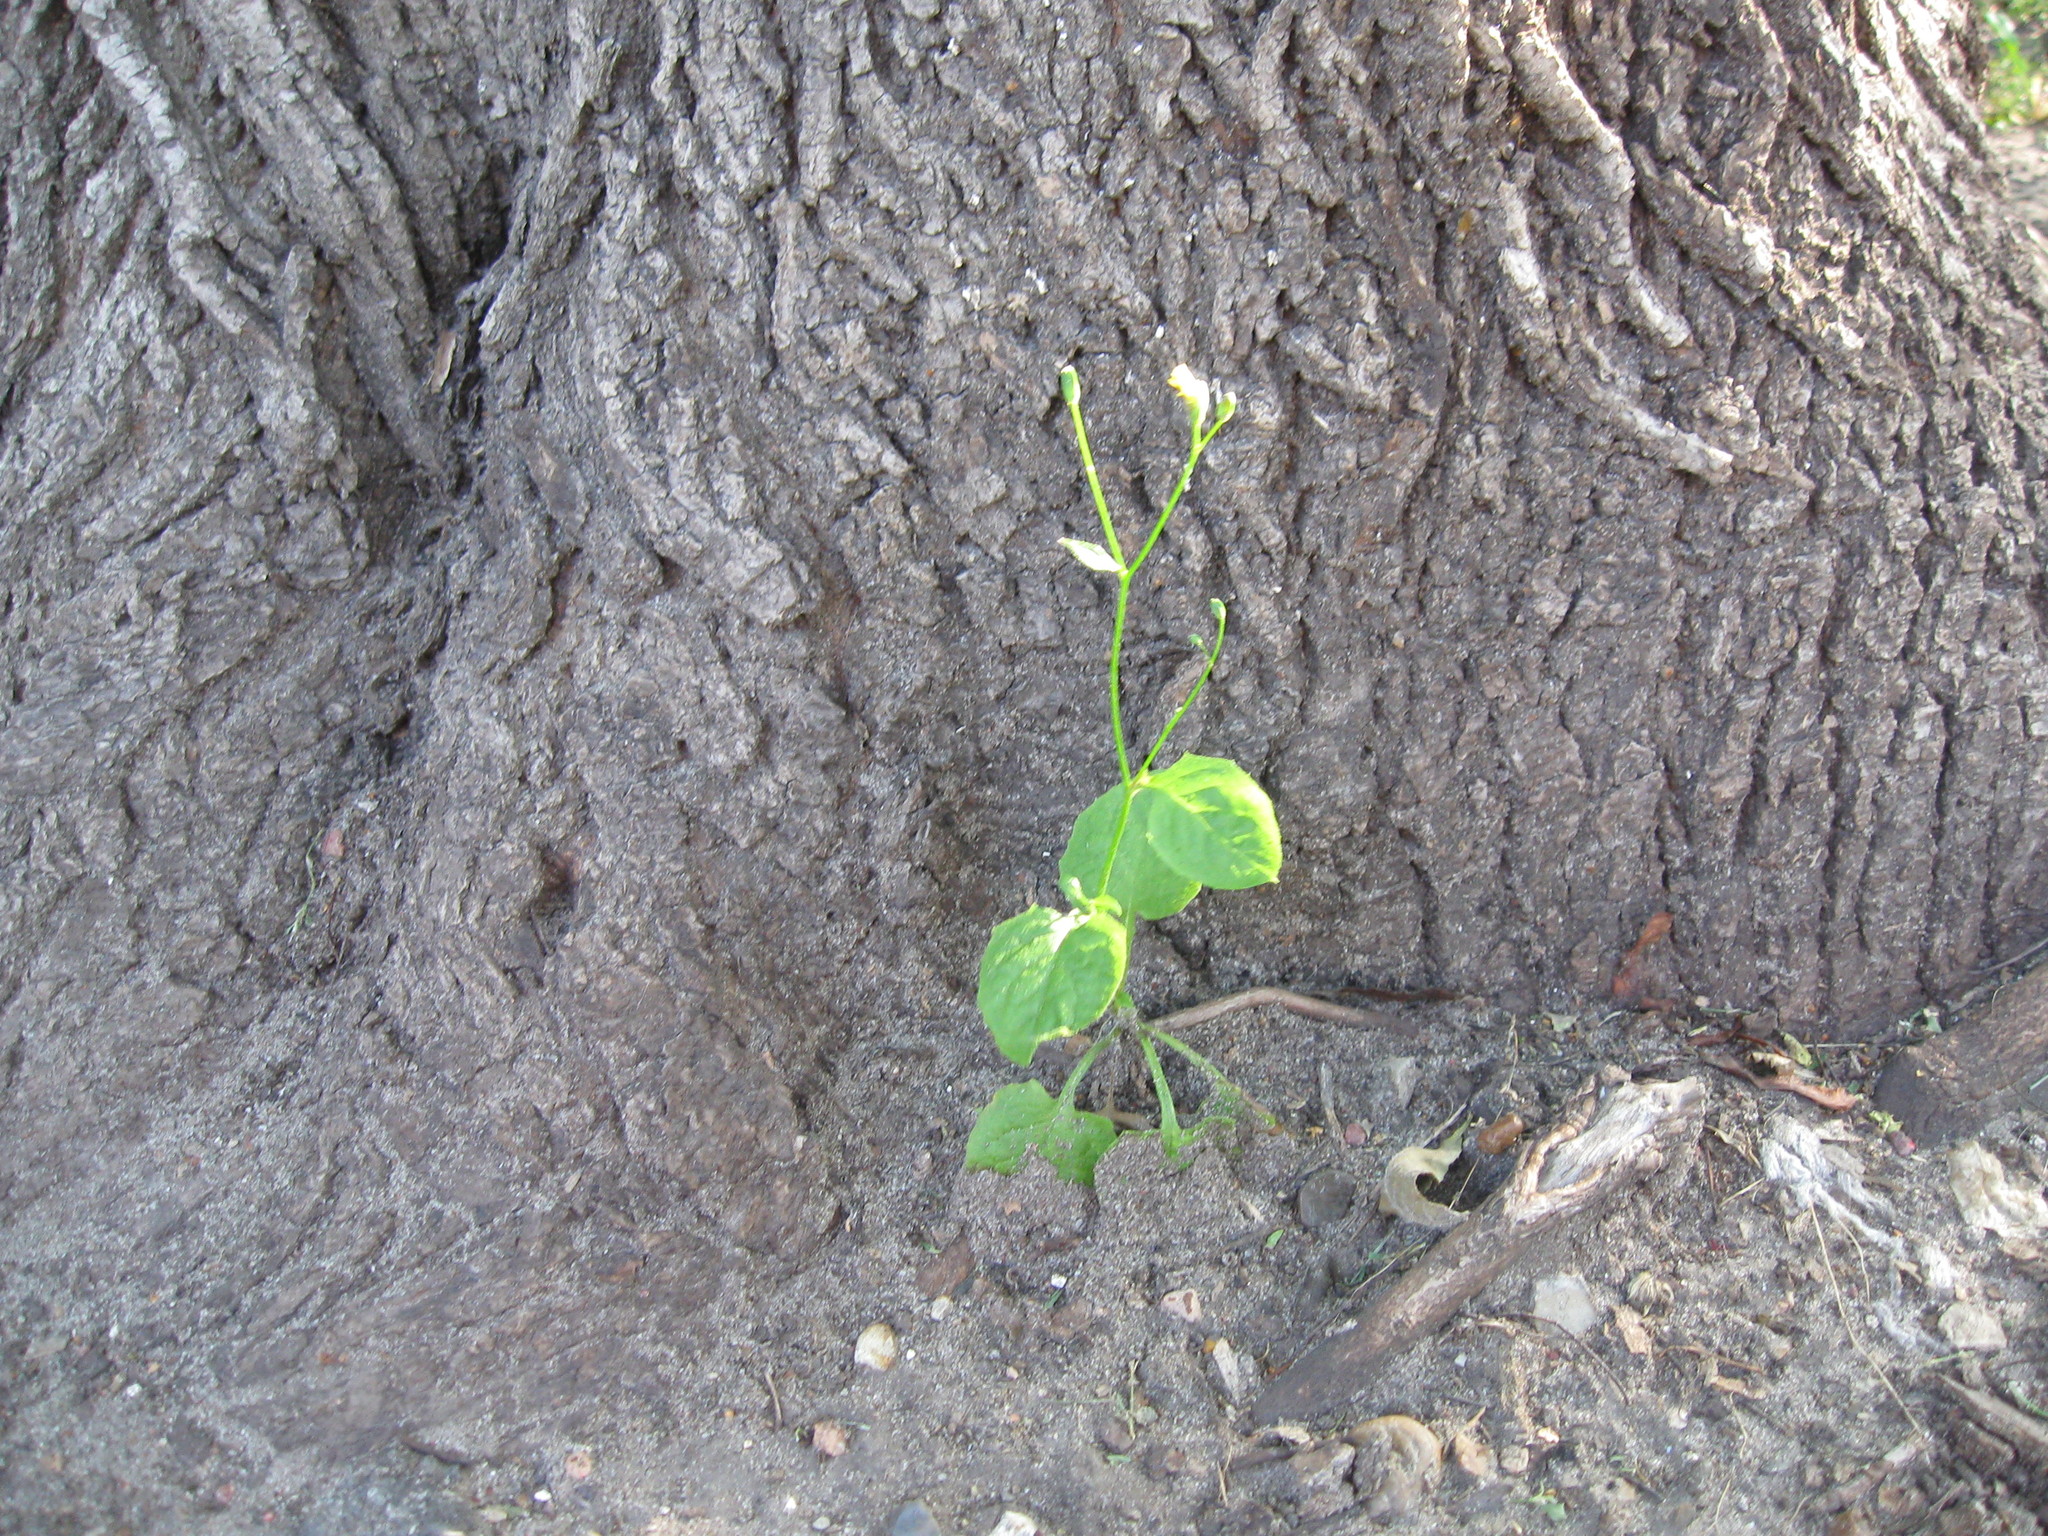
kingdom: Plantae
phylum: Tracheophyta
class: Magnoliopsida
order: Asterales
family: Asteraceae
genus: Lapsana
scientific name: Lapsana communis
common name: Nipplewort
